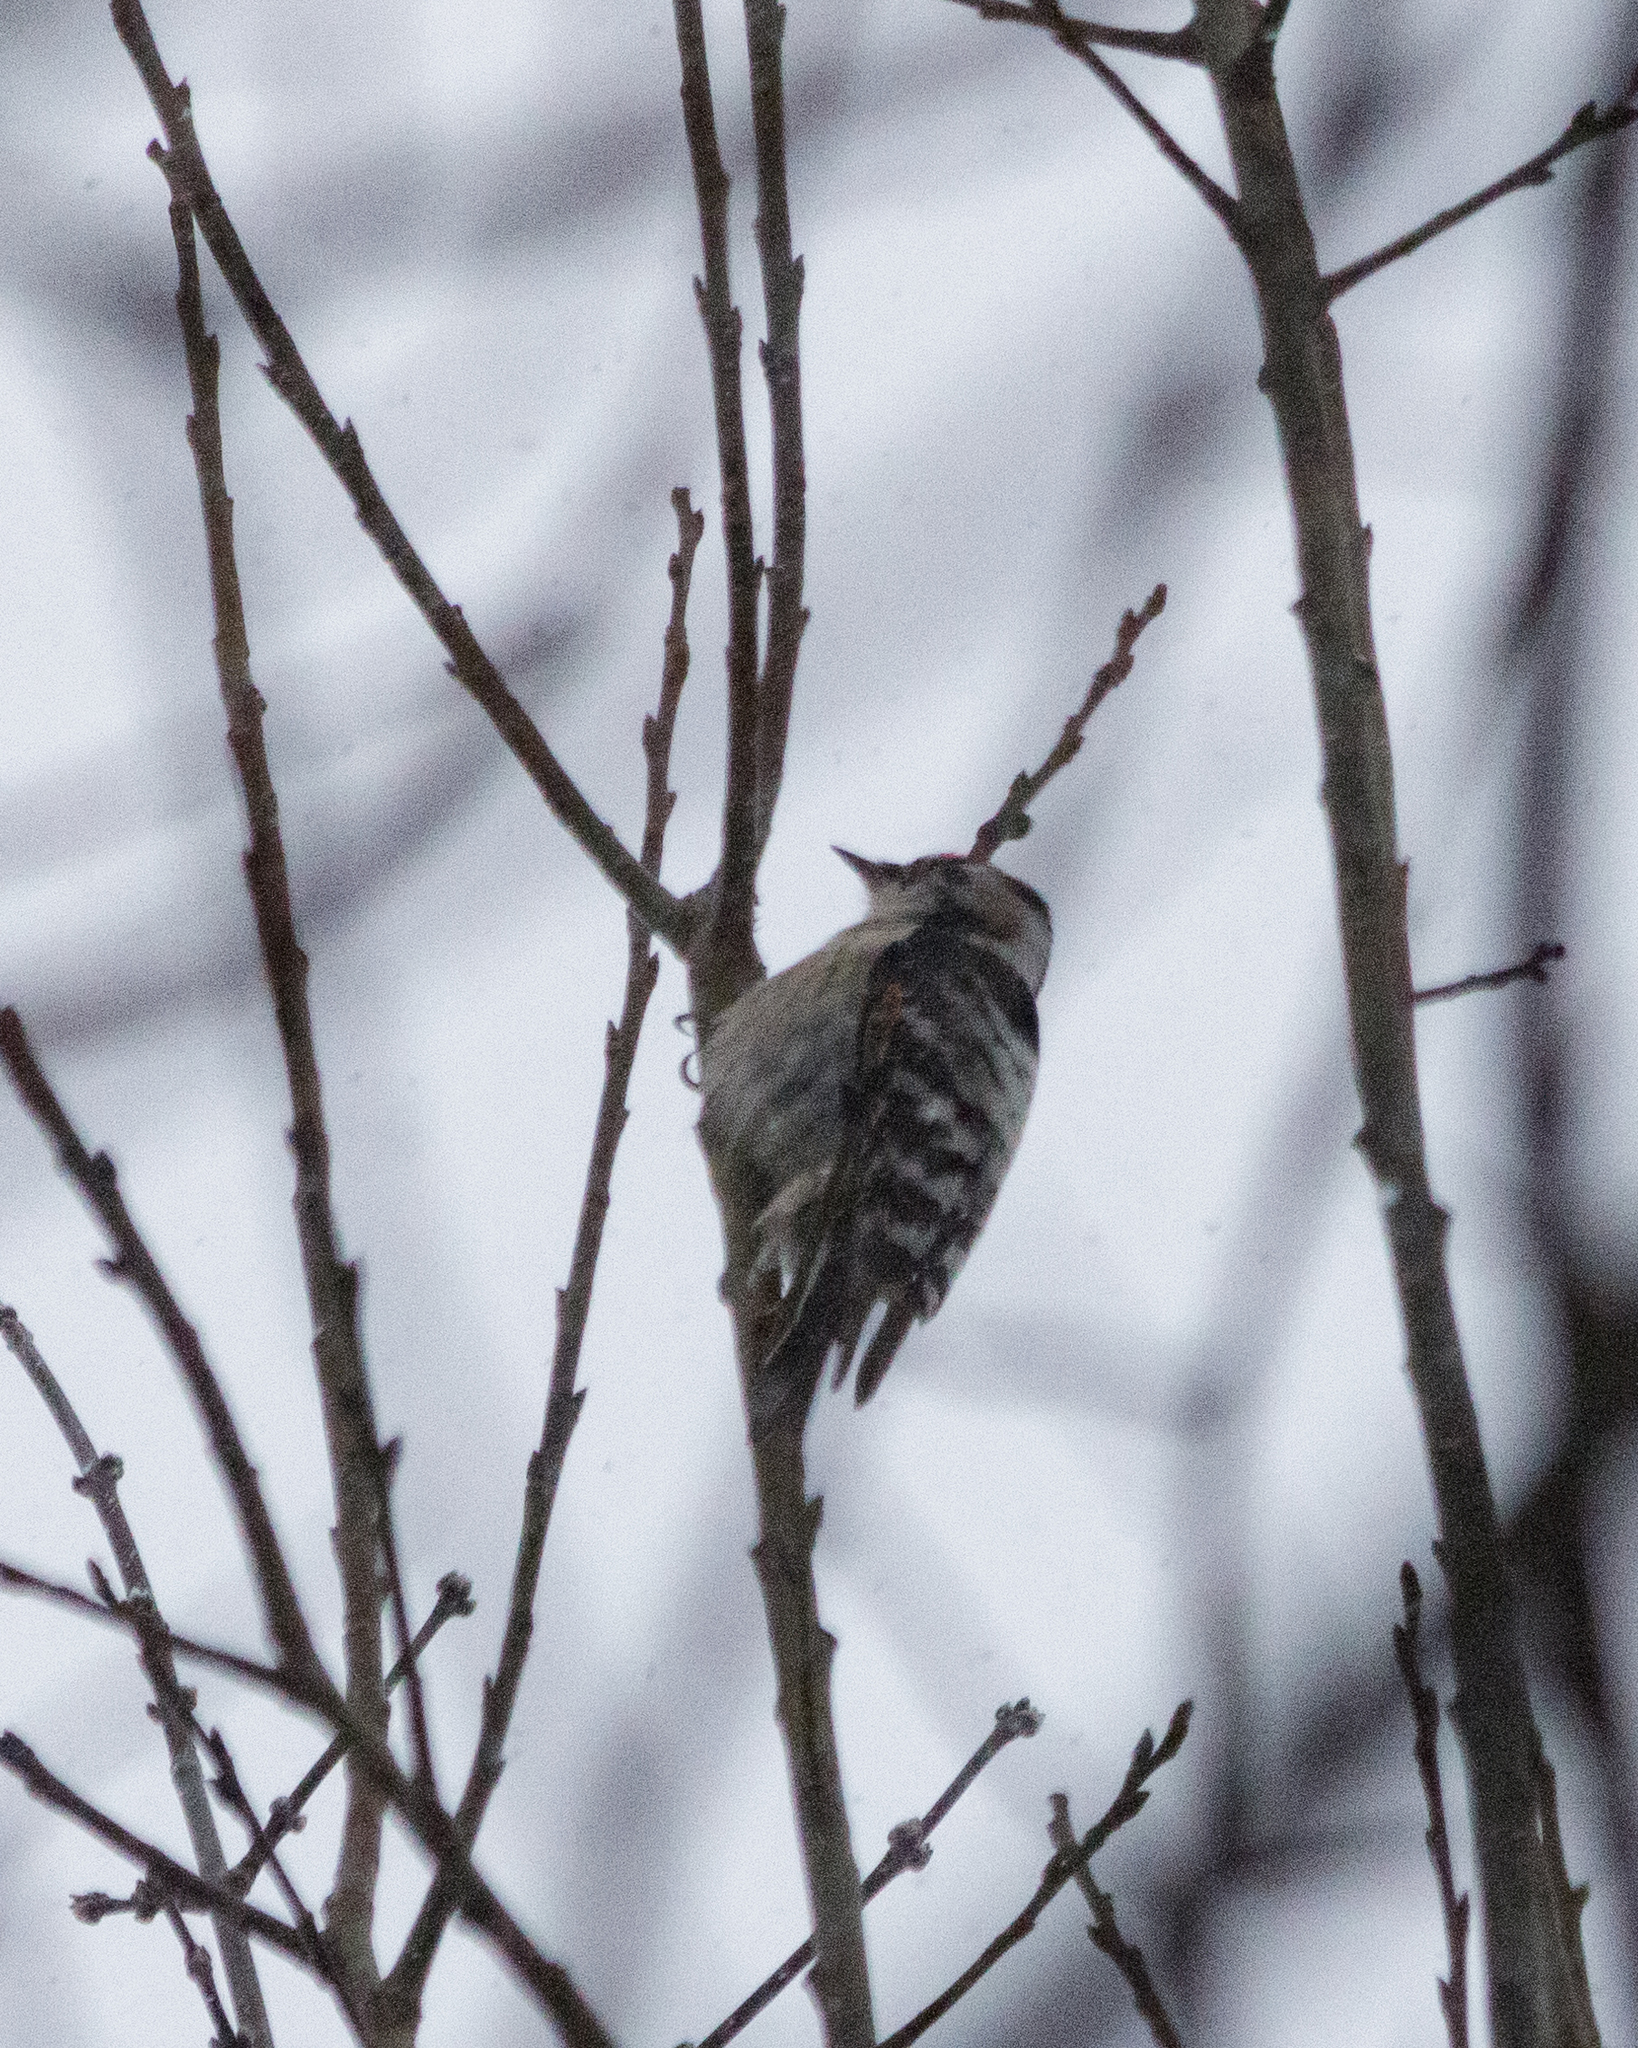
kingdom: Animalia
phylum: Chordata
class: Aves
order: Piciformes
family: Picidae
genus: Dryobates
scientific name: Dryobates minor
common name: Lesser spotted woodpecker
